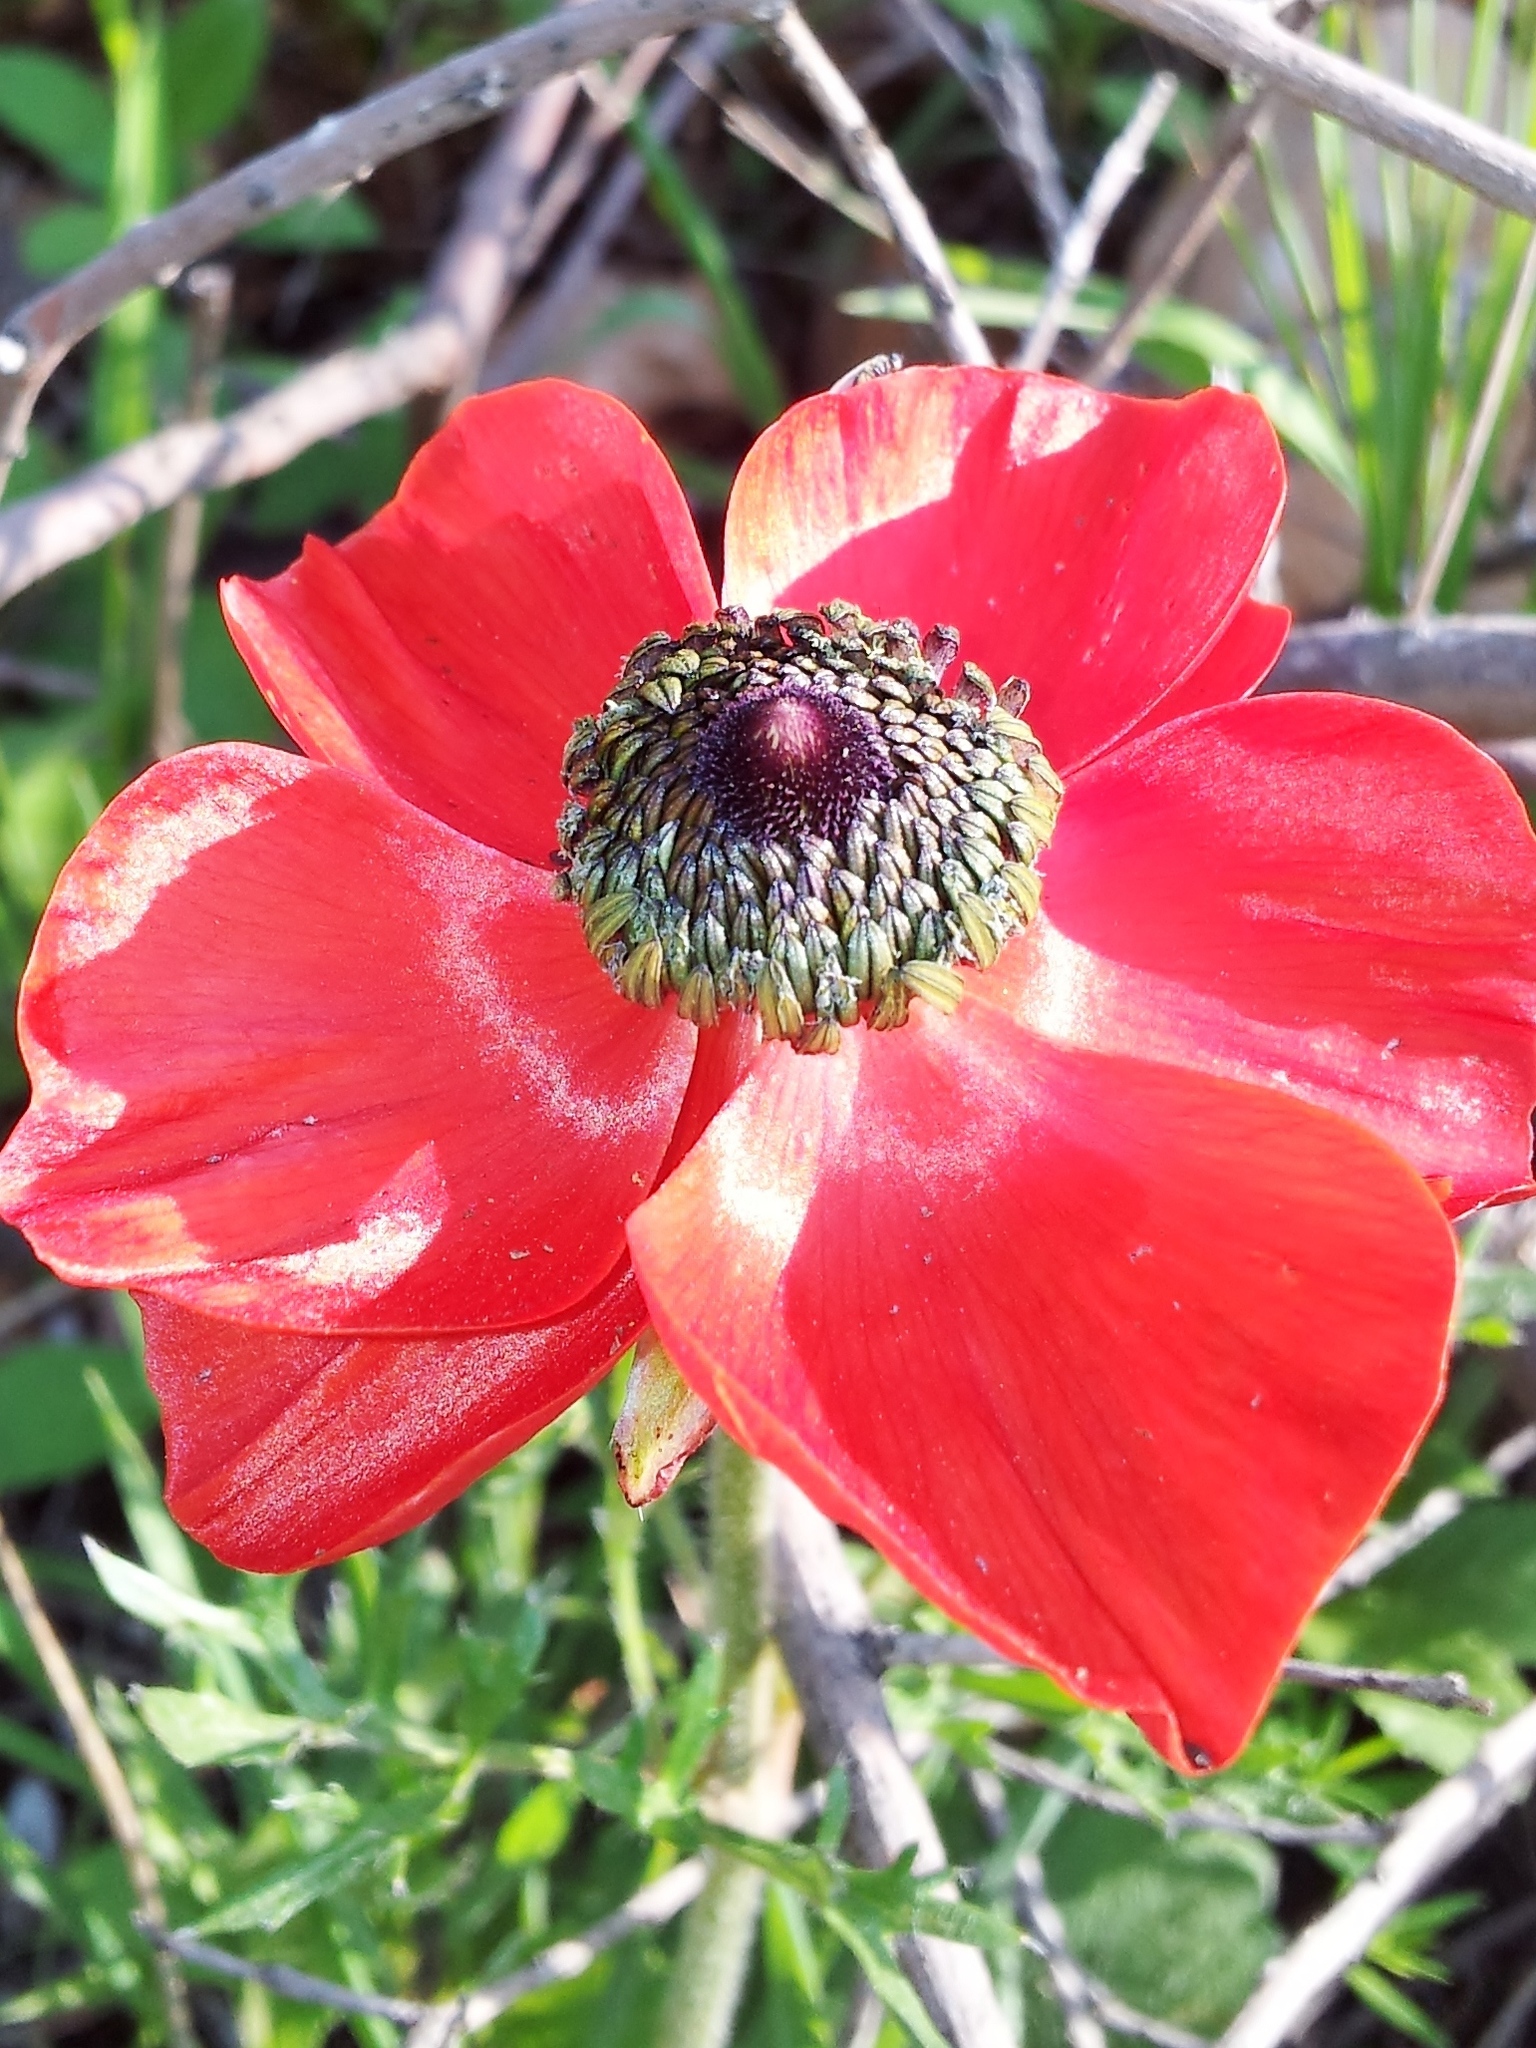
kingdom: Plantae
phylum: Tracheophyta
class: Magnoliopsida
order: Ranunculales
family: Ranunculaceae
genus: Ranunculus
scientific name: Ranunculus asiaticus
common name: Persian buttercup
